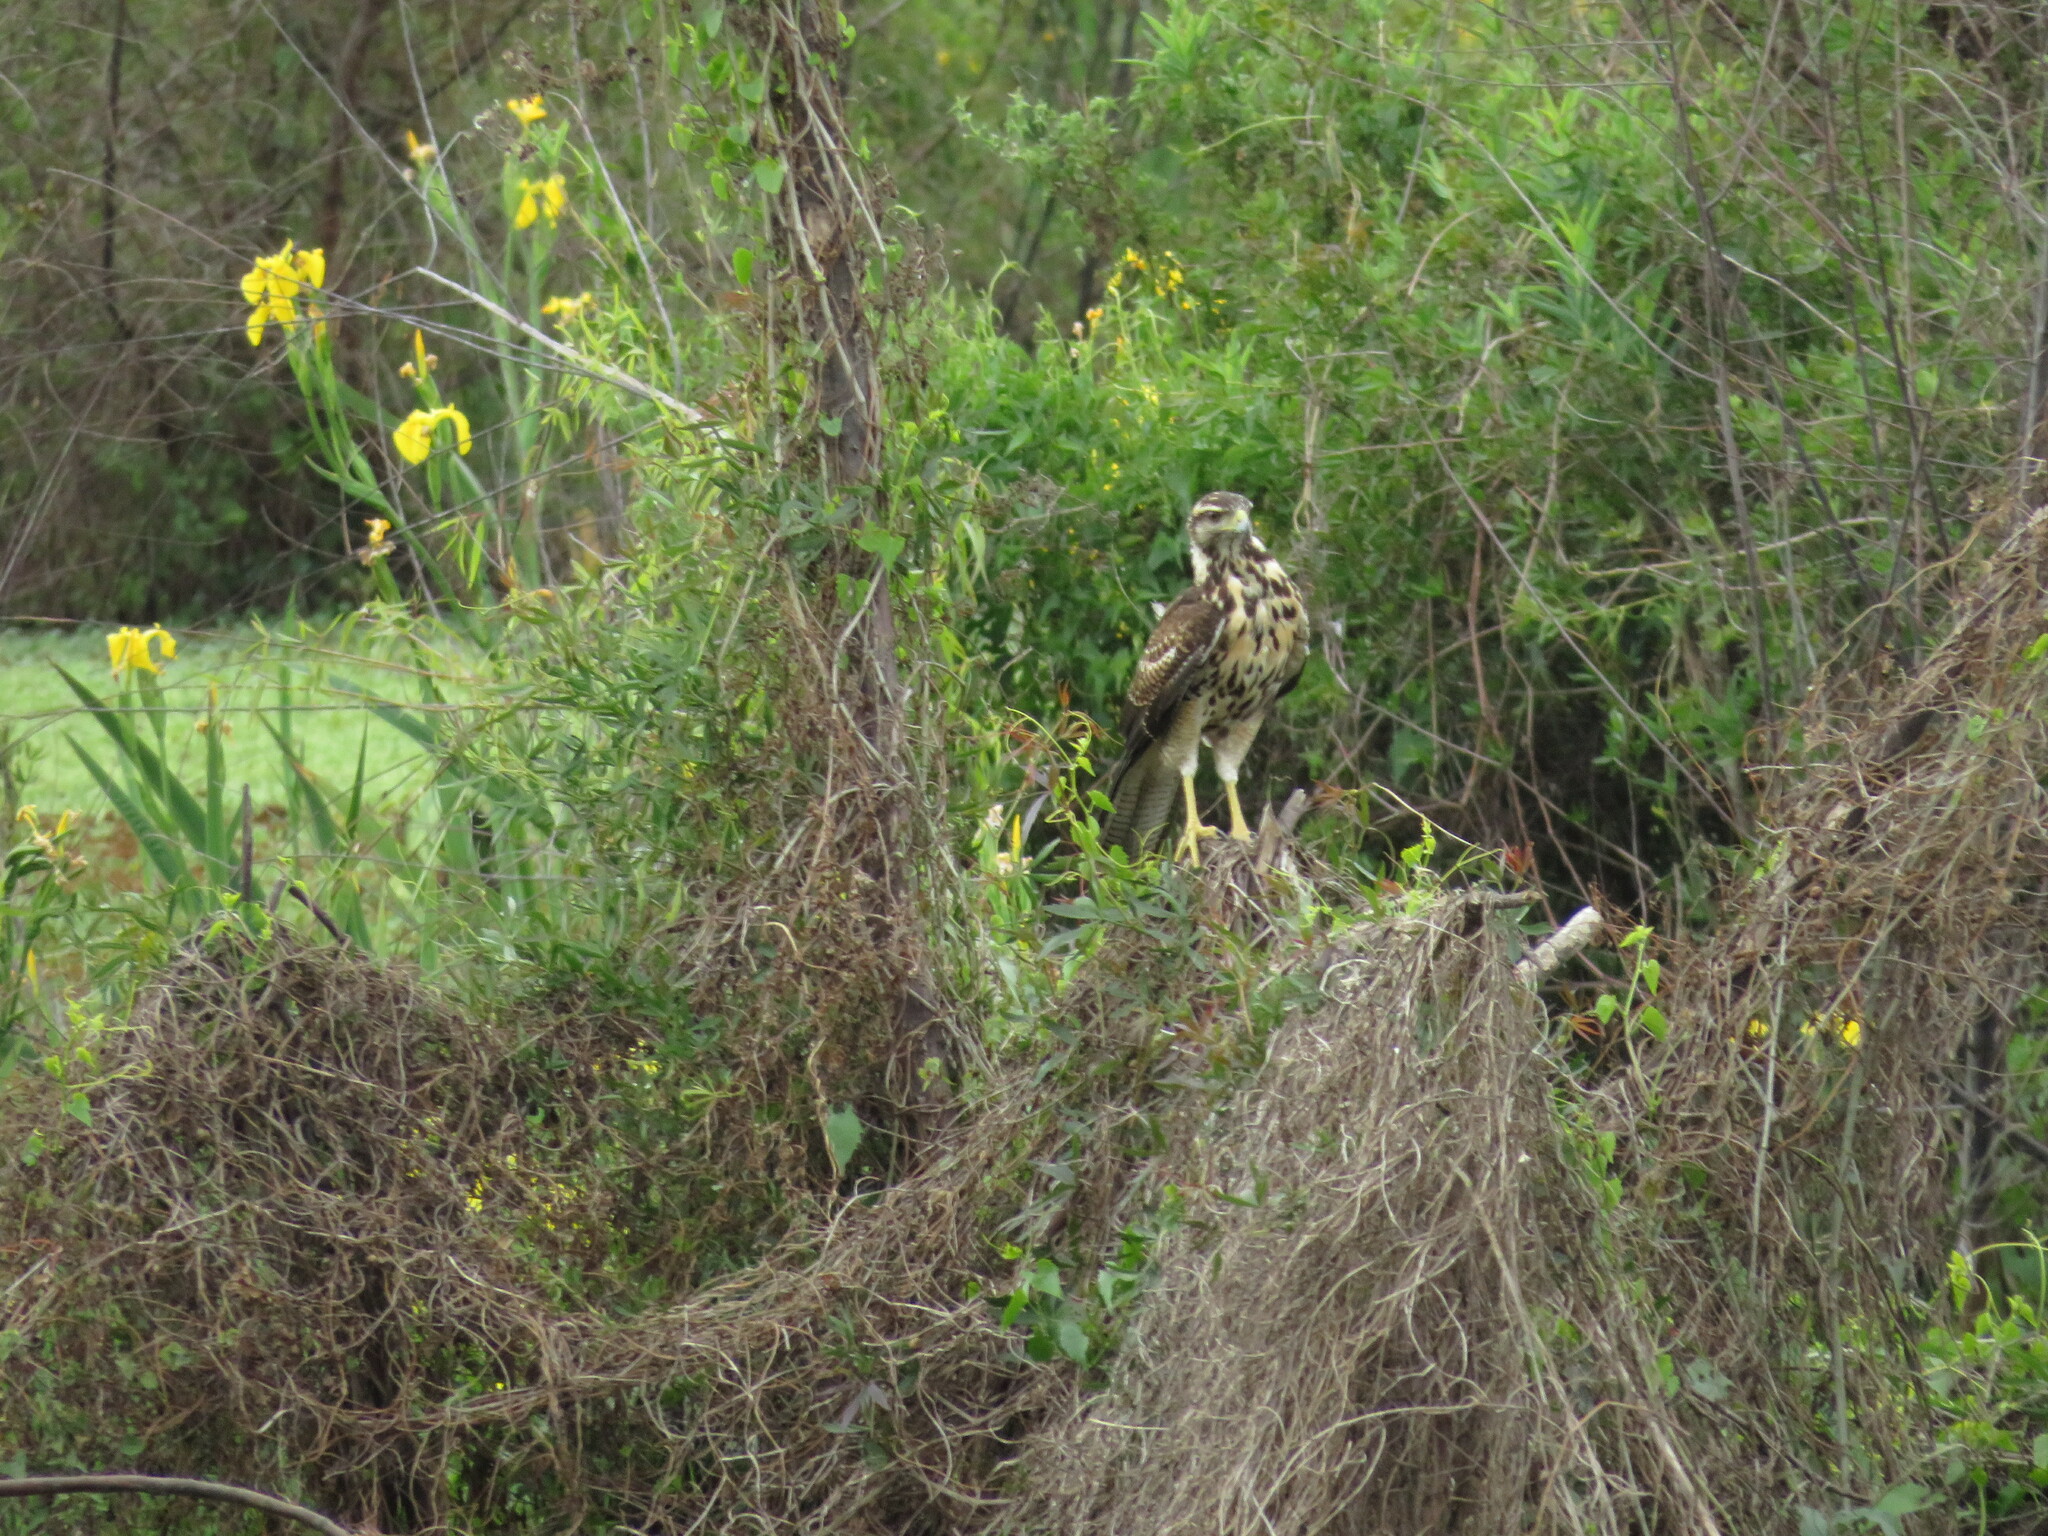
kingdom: Animalia
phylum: Chordata
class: Aves
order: Accipitriformes
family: Accipitridae
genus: Parabuteo
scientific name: Parabuteo unicinctus
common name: Harris's hawk
